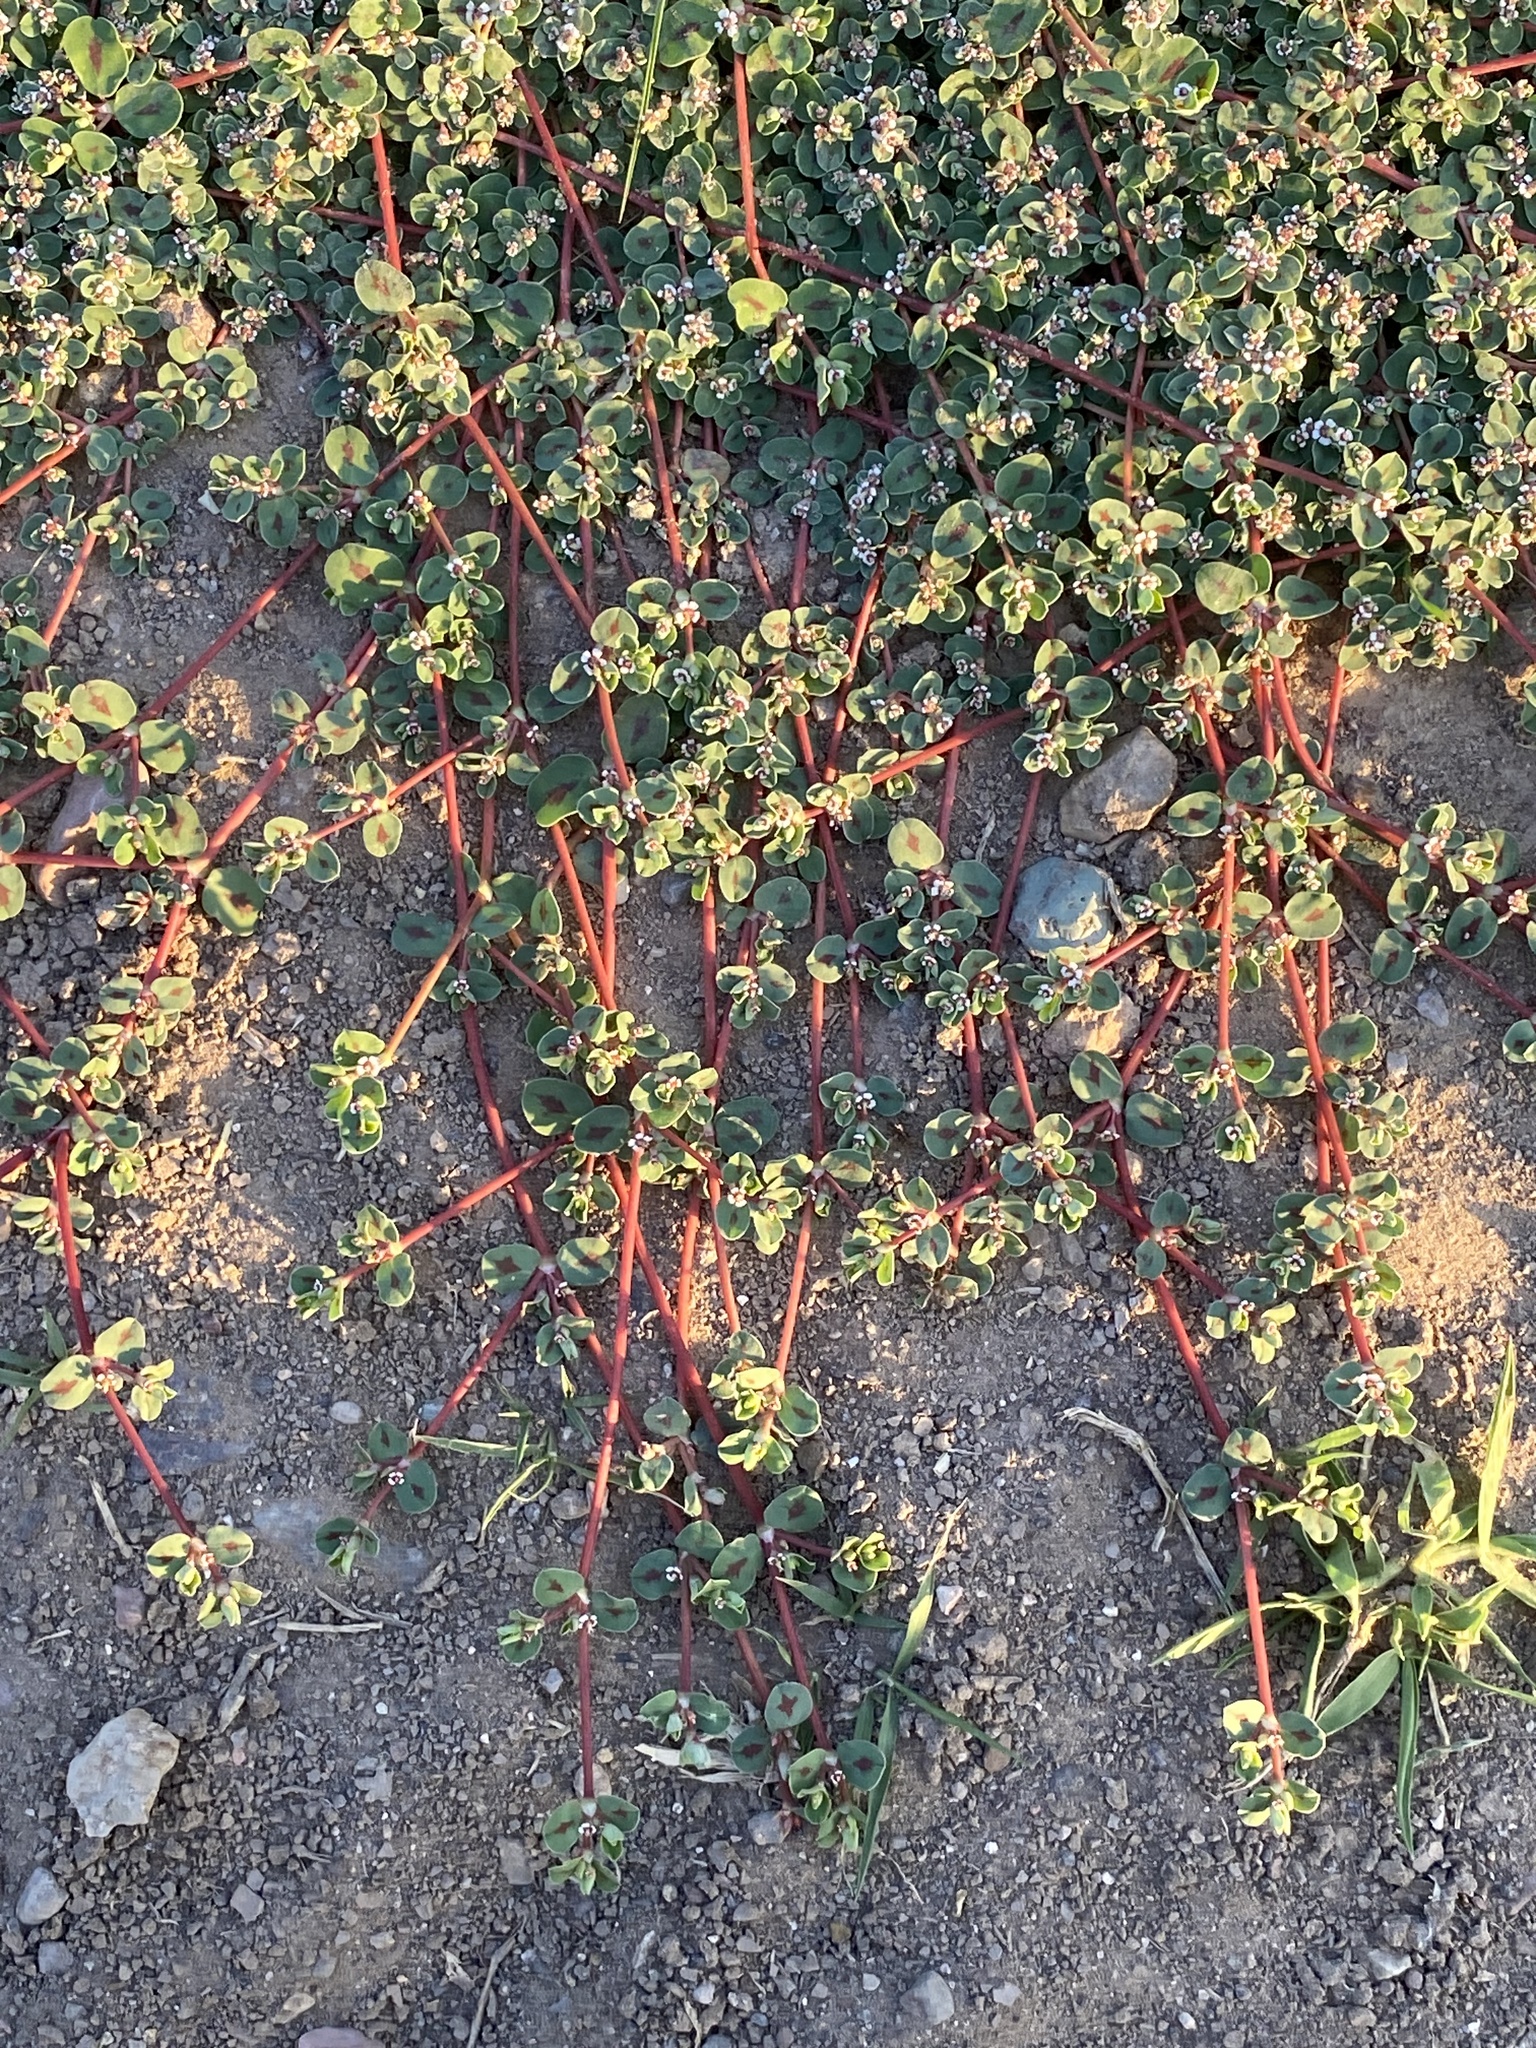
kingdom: Plantae
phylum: Tracheophyta
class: Magnoliopsida
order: Malpighiales
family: Euphorbiaceae
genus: Euphorbia
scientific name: Euphorbia albomarginata
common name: Whitemargin sandmat
